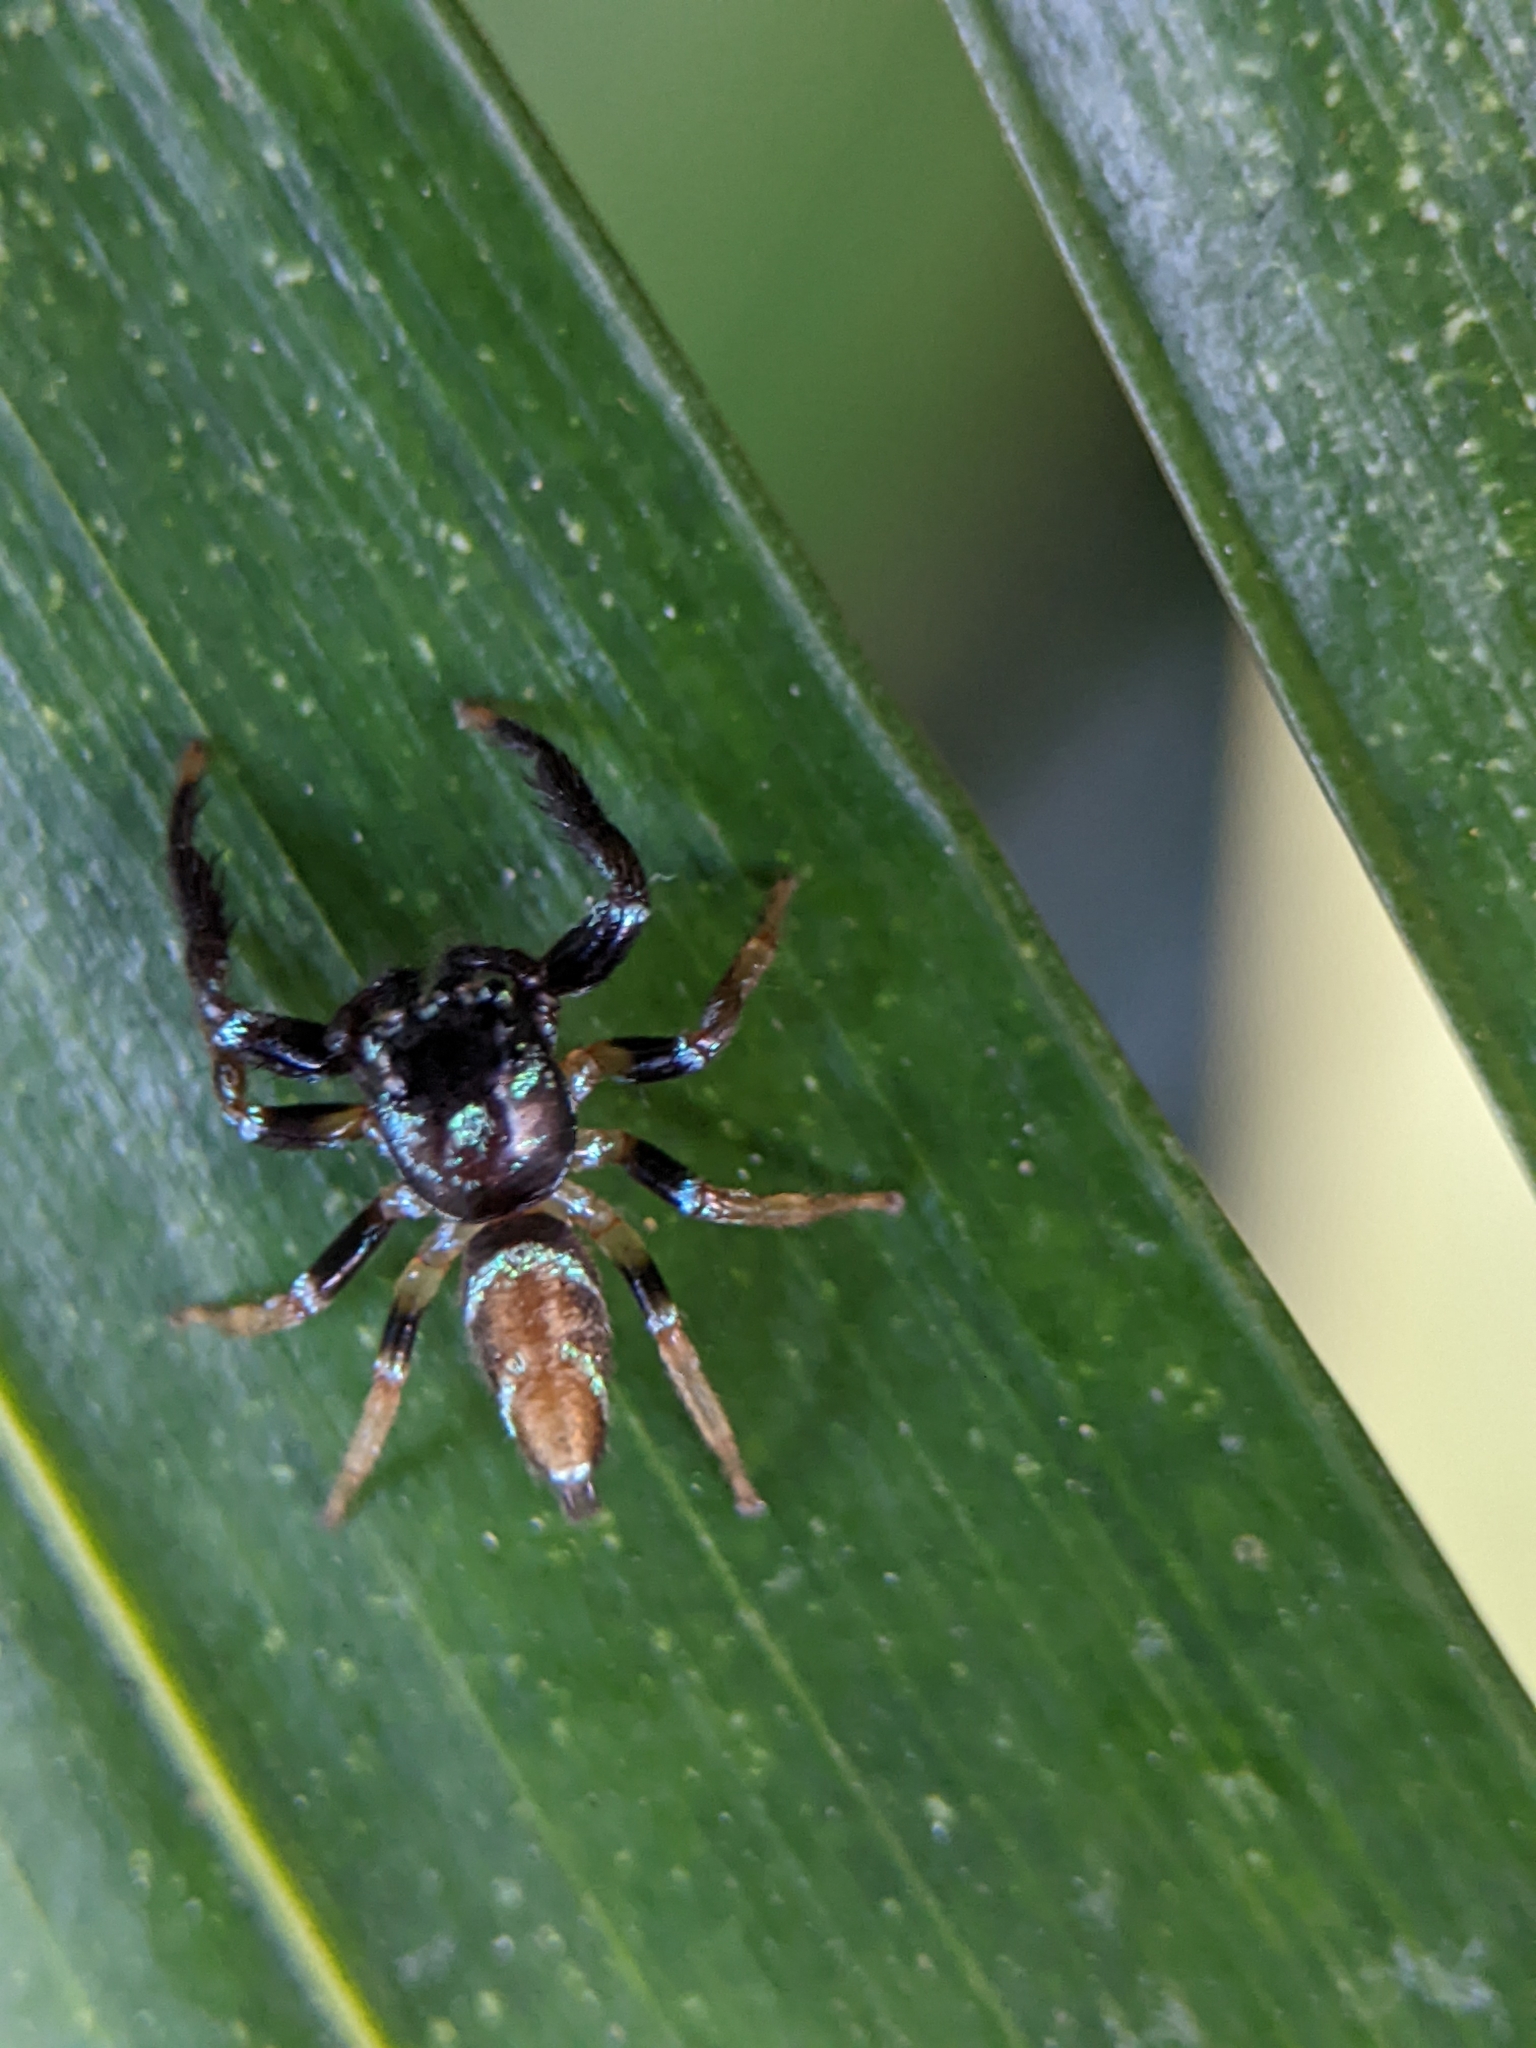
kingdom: Animalia
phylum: Arthropoda
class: Arachnida
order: Araneae
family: Salticidae
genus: Thiania
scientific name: Thiania bhamoensis
